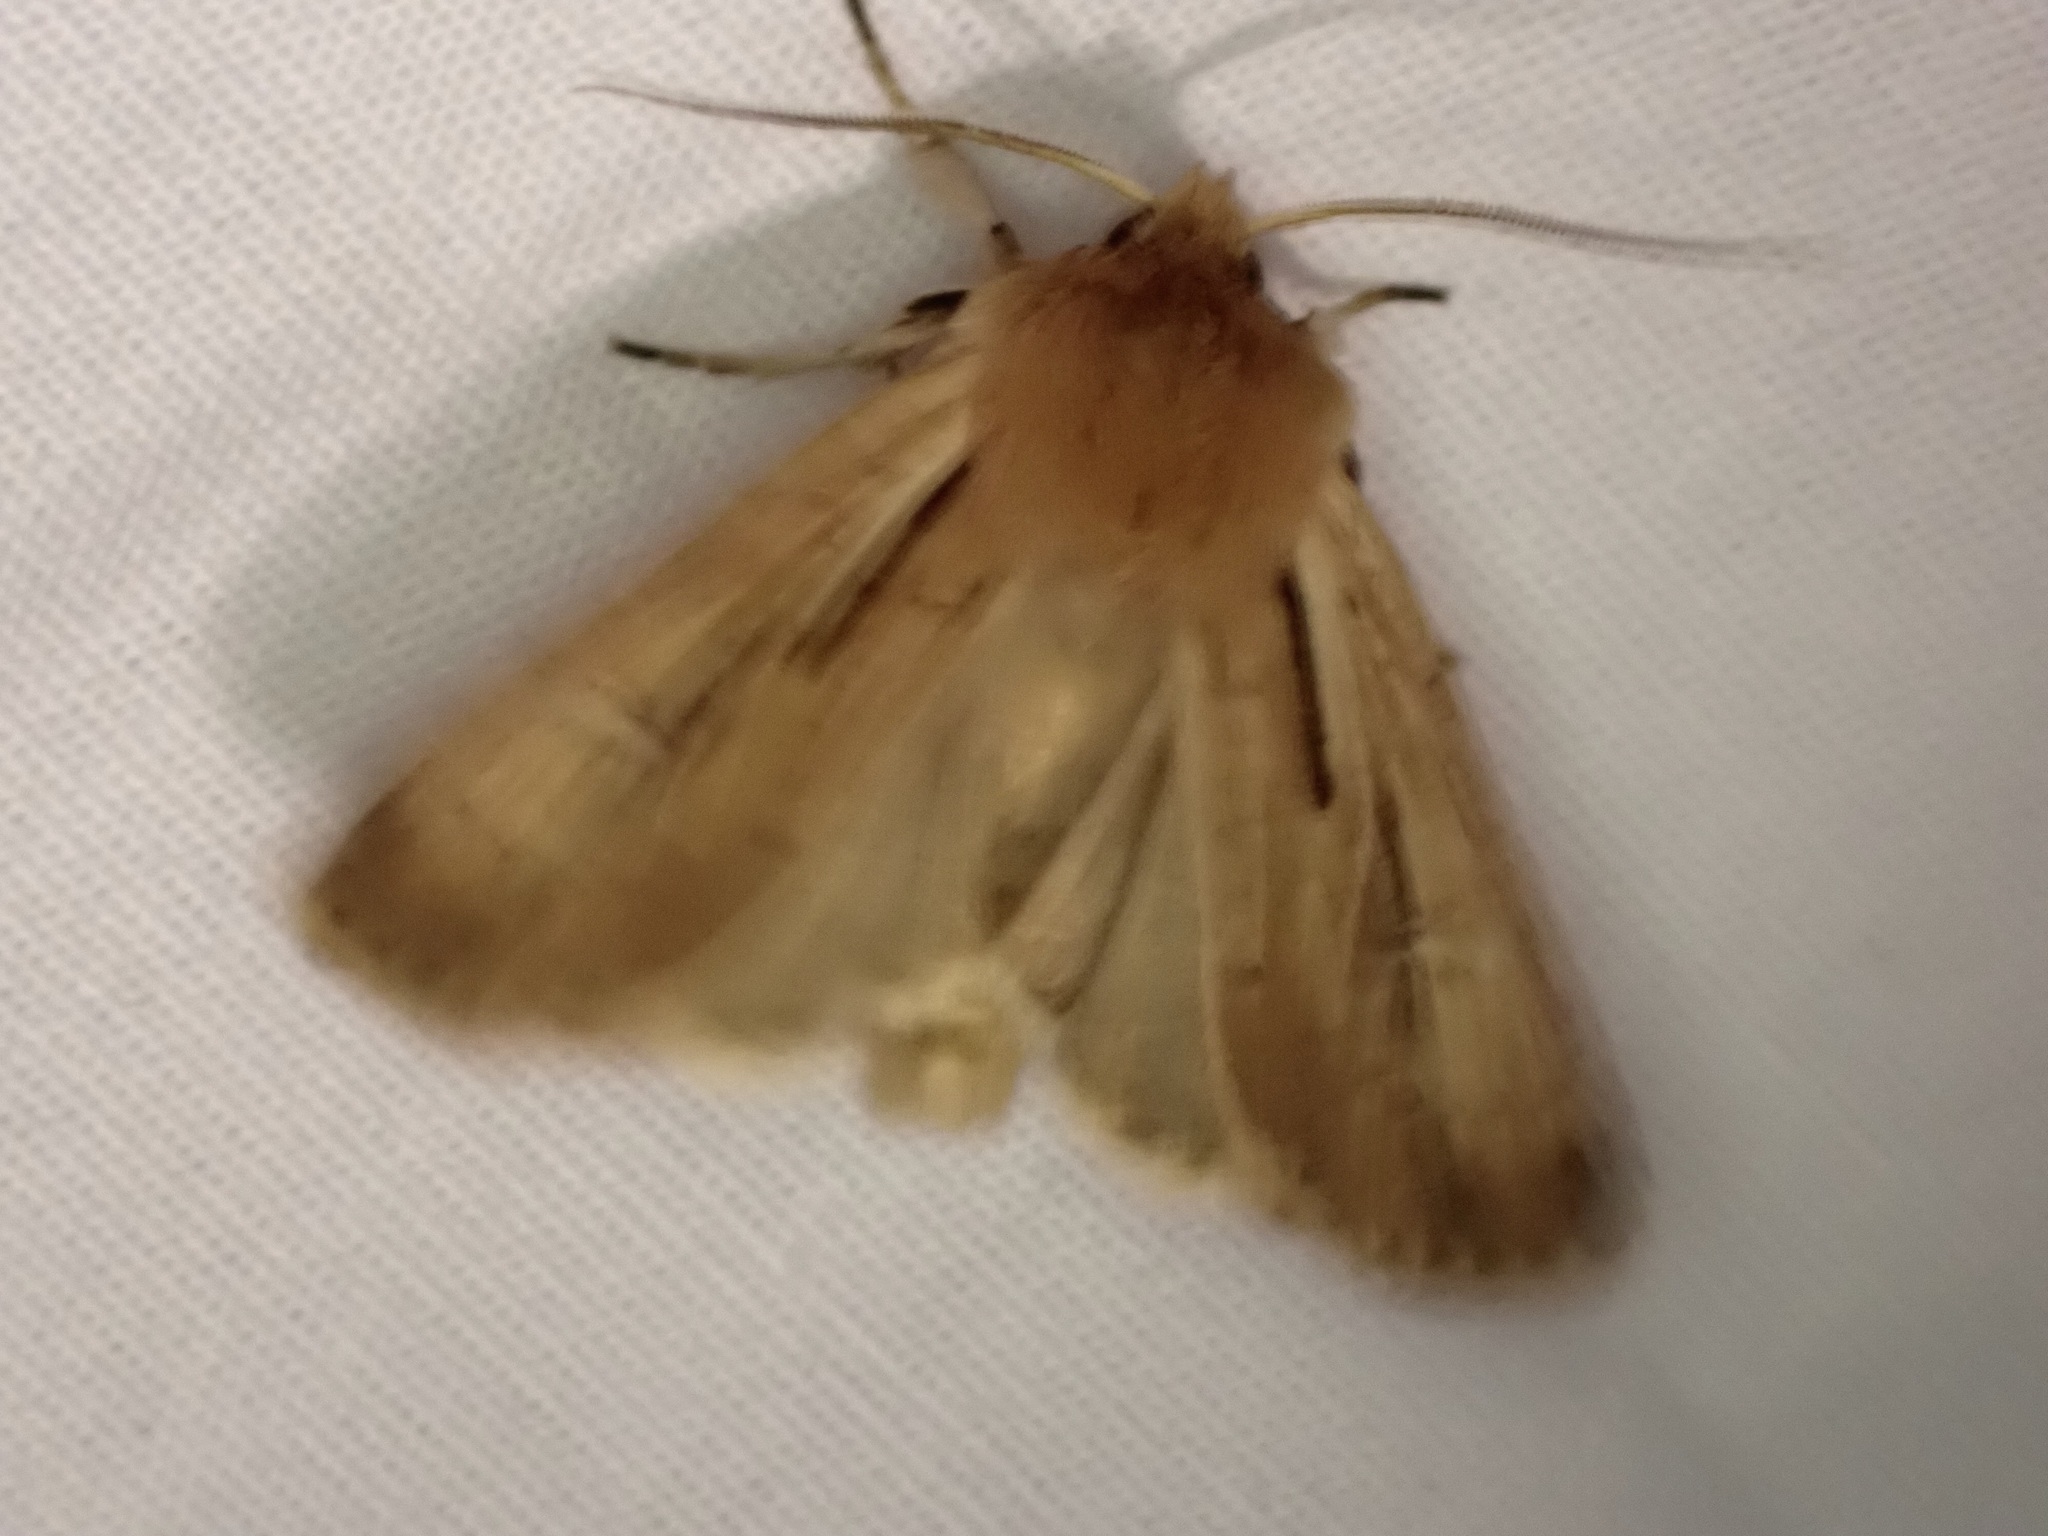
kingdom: Animalia
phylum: Arthropoda
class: Insecta
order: Lepidoptera
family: Noctuidae
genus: Ichneutica
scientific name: Ichneutica propria
